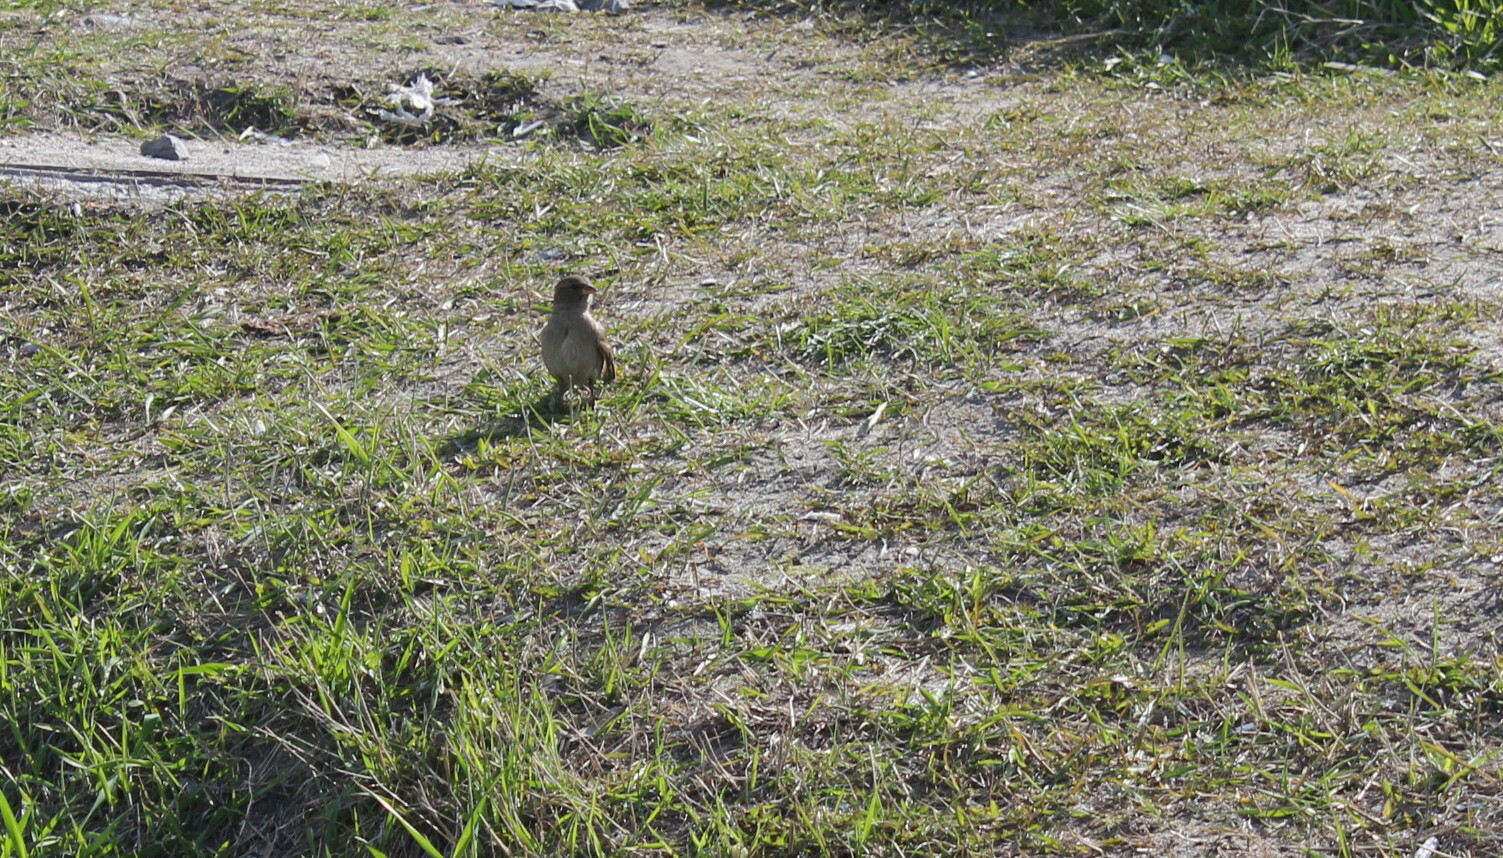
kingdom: Animalia
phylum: Chordata
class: Aves
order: Passeriformes
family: Passeridae
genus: Passer
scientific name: Passer domesticus
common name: House sparrow
